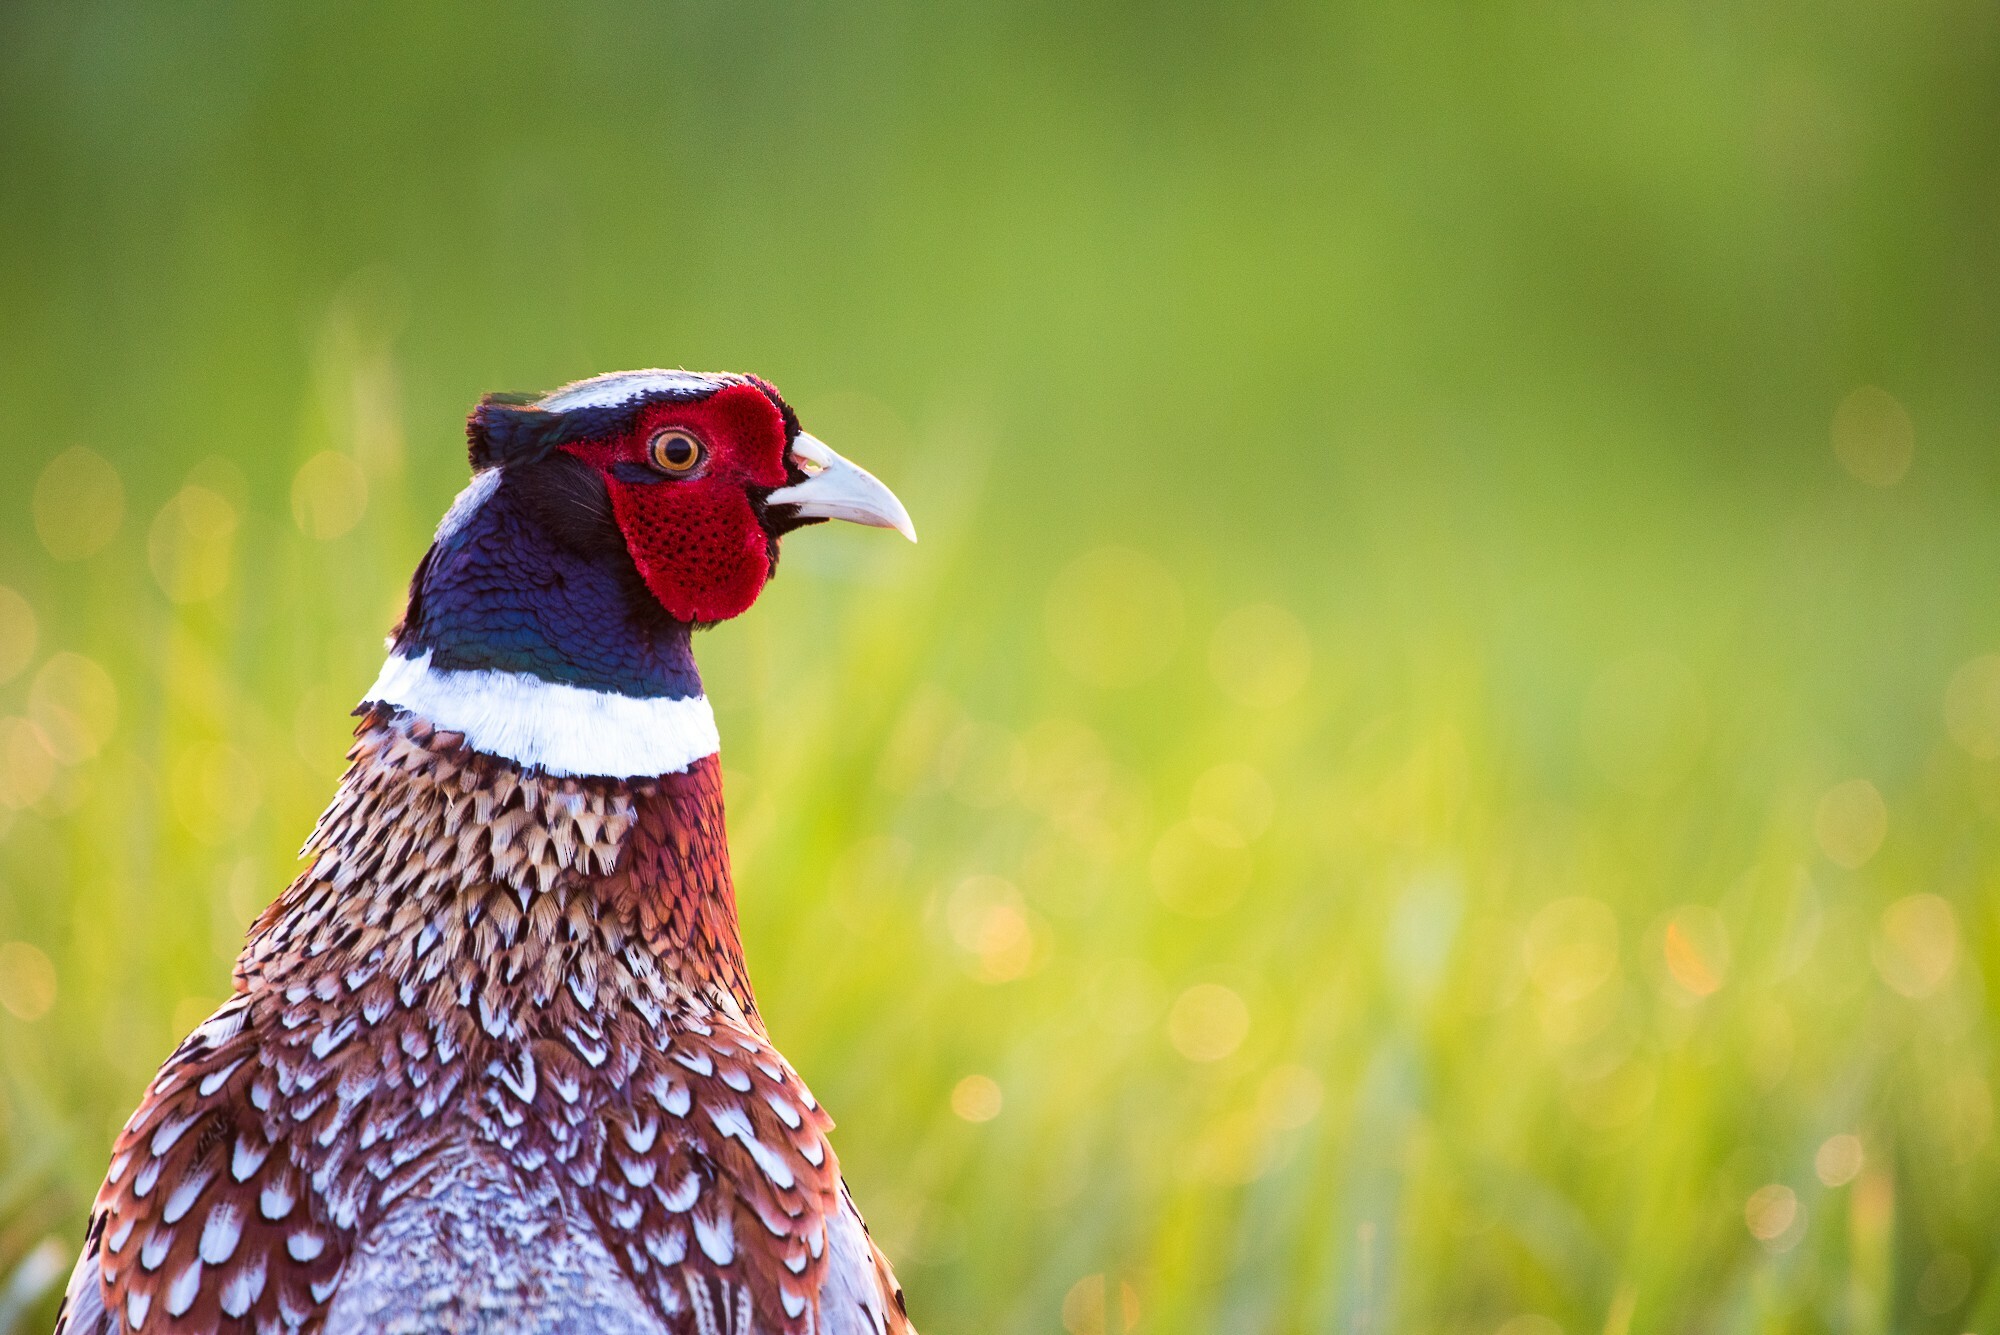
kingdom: Animalia
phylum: Chordata
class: Aves
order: Galliformes
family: Phasianidae
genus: Phasianus
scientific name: Phasianus colchicus
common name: Common pheasant
